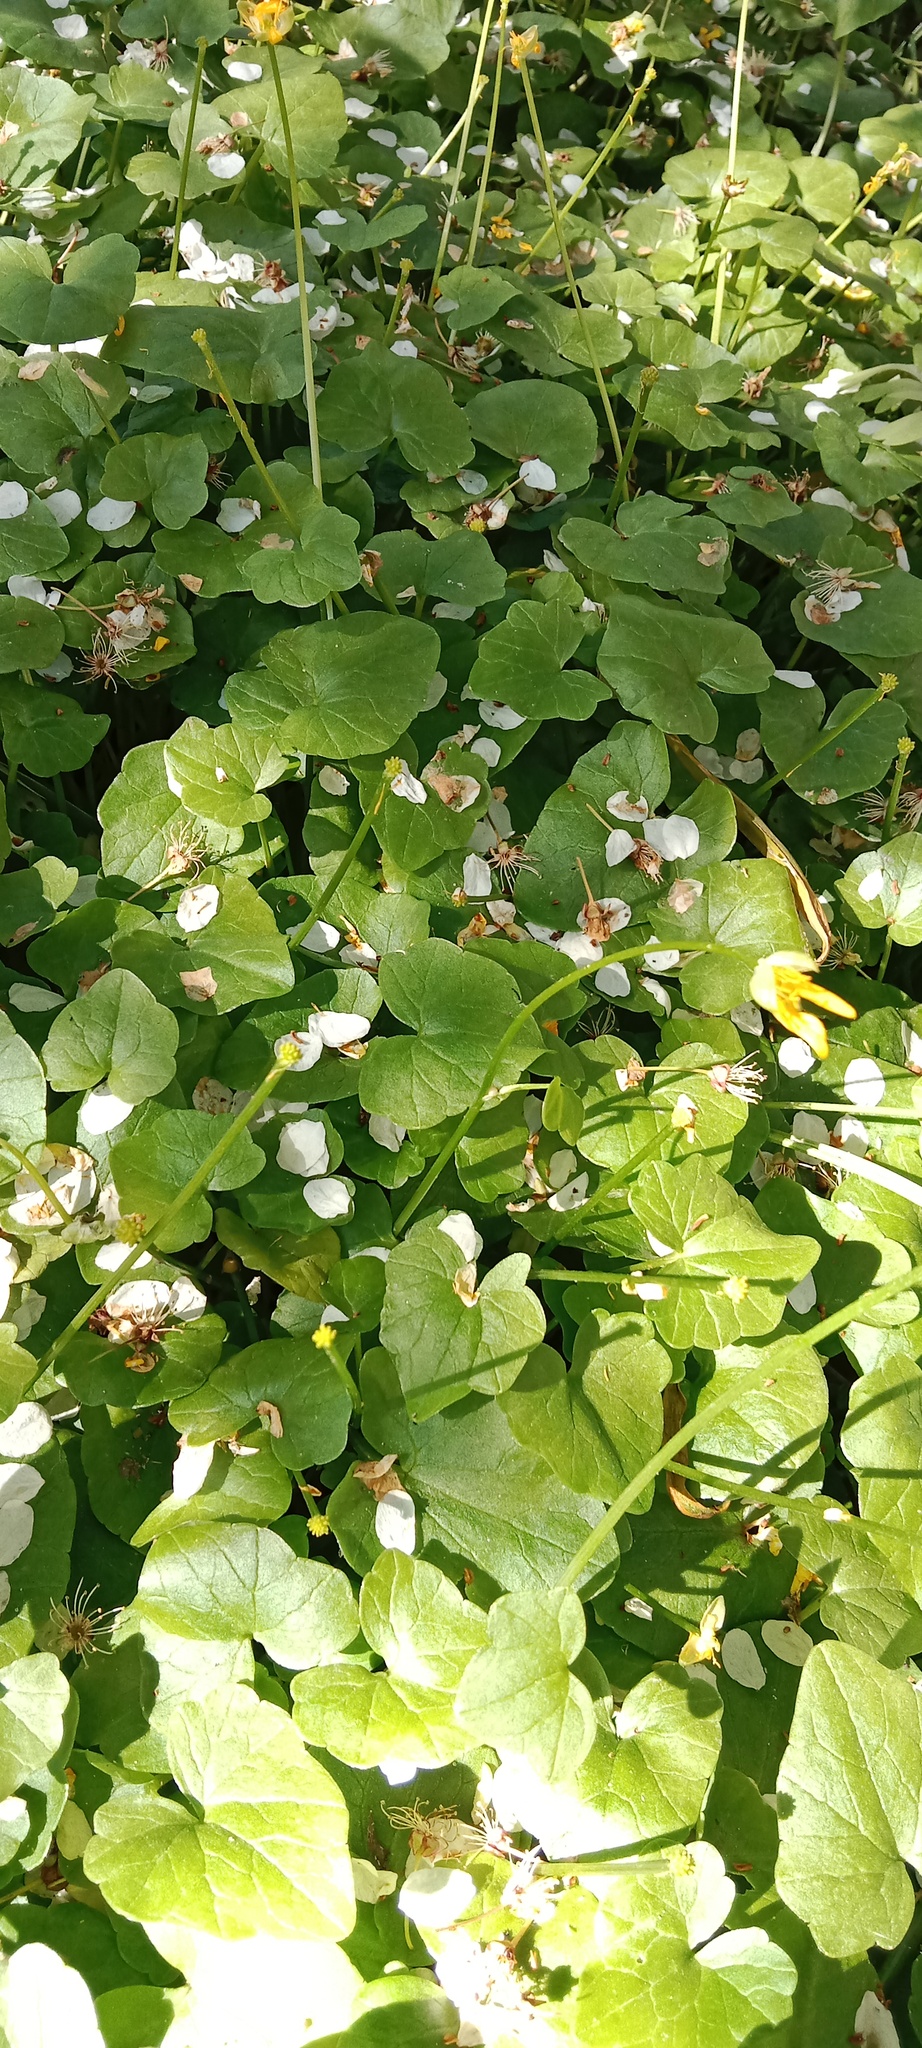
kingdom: Plantae
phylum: Tracheophyta
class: Magnoliopsida
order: Ranunculales
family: Ranunculaceae
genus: Ficaria
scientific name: Ficaria verna
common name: Lesser celandine
